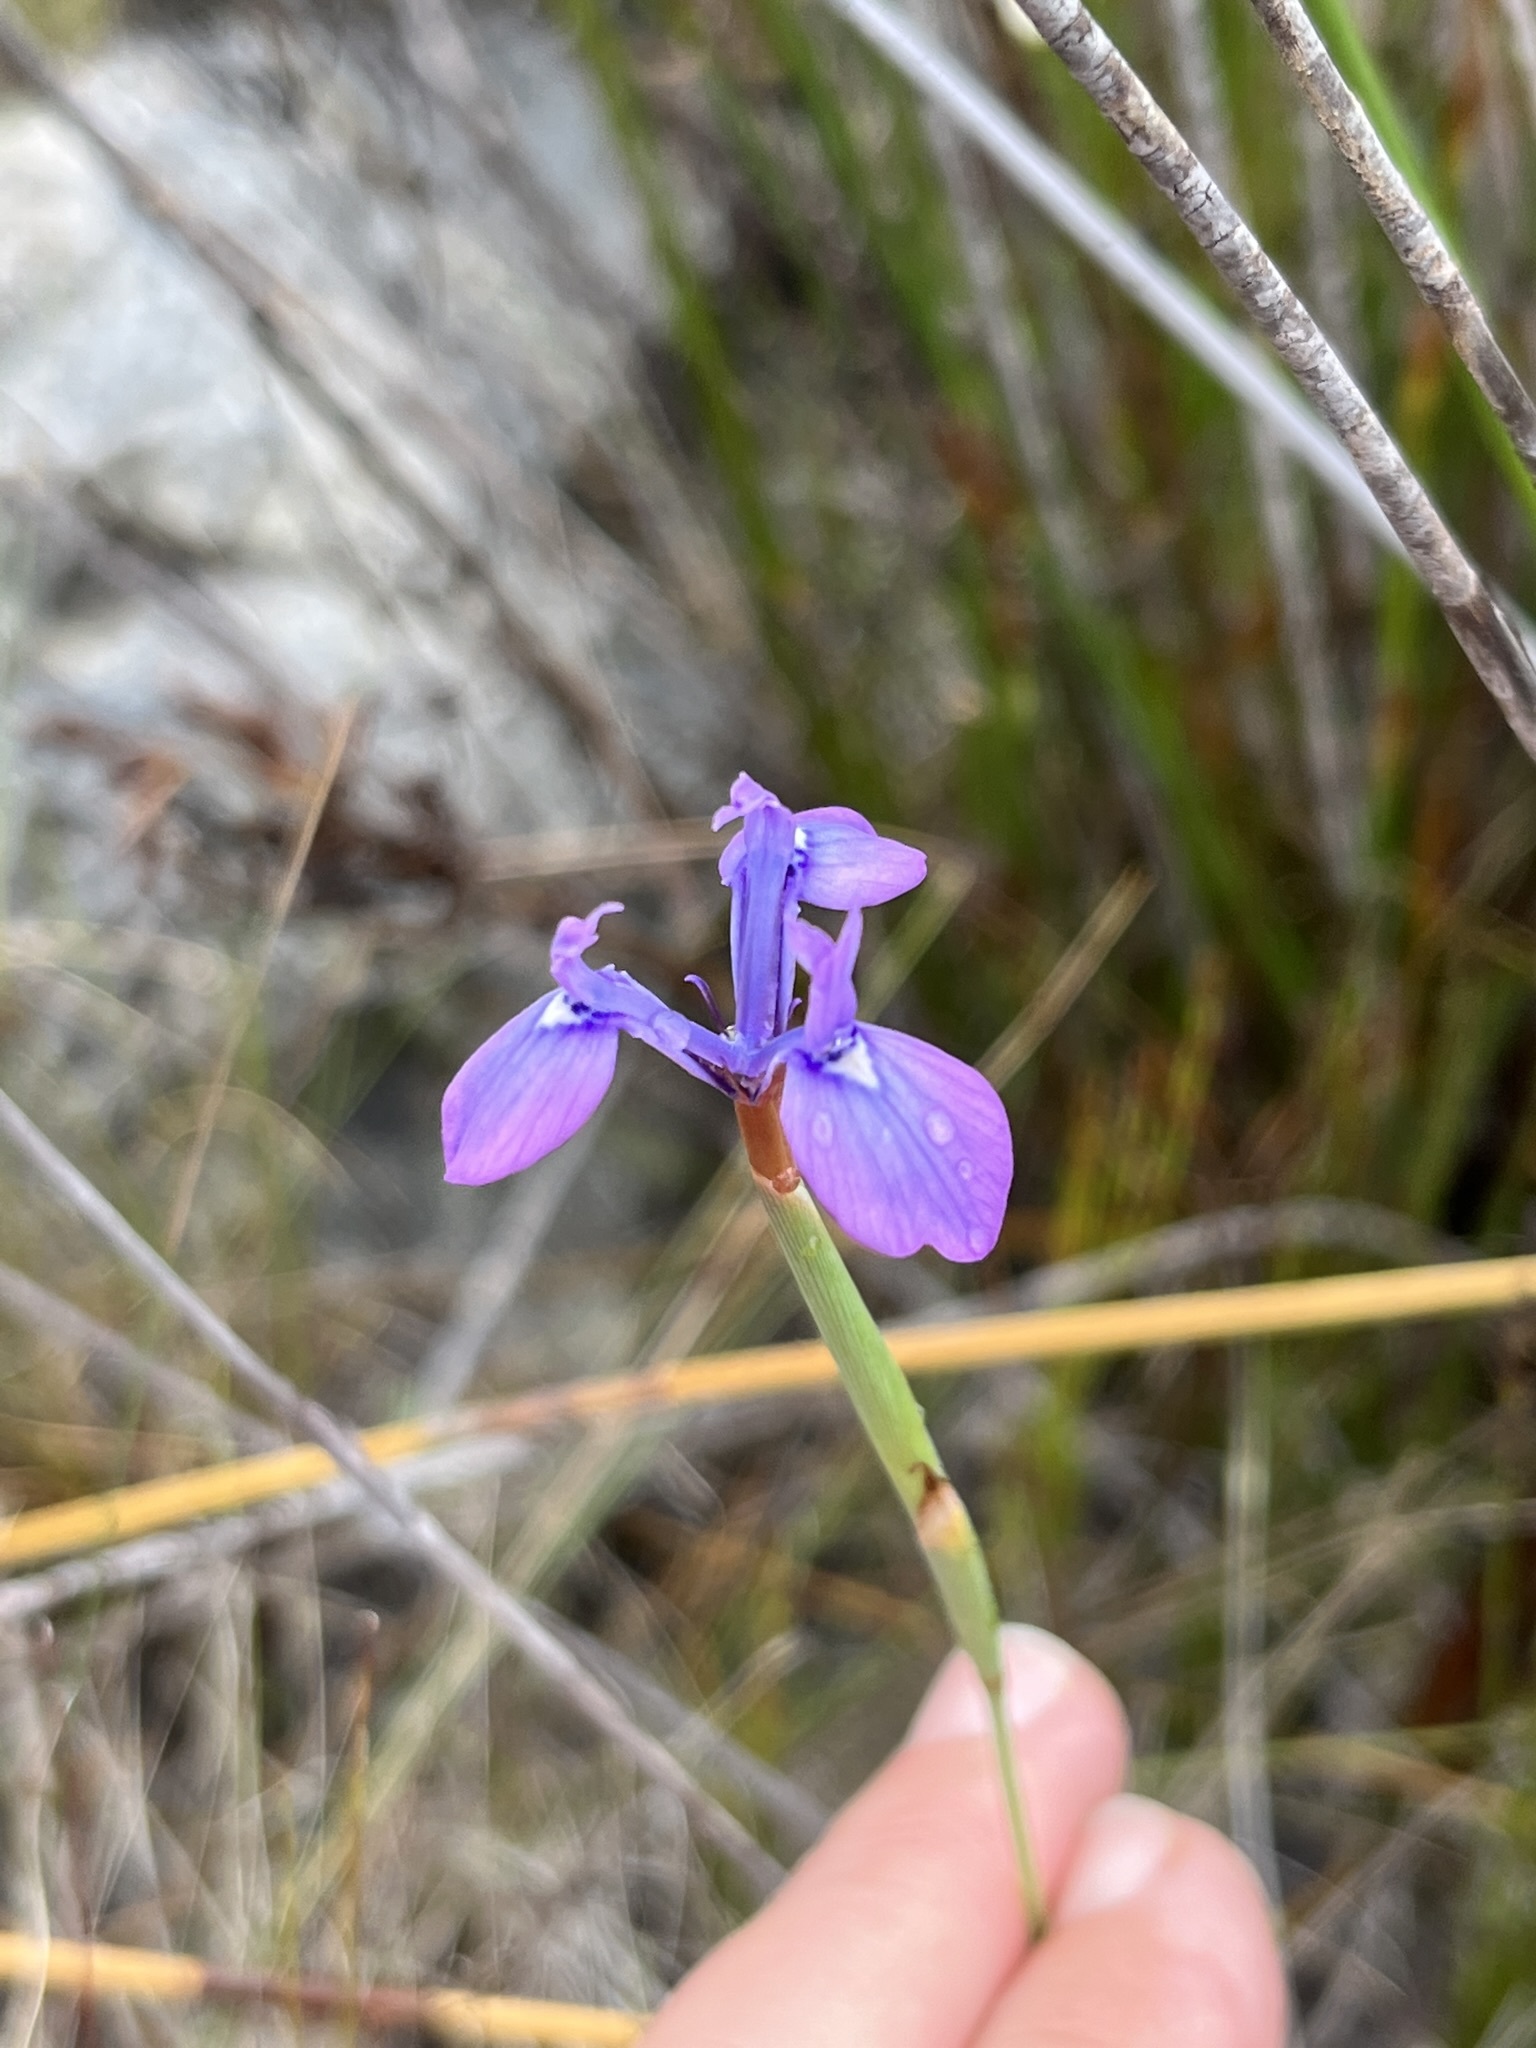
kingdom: Plantae
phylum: Tracheophyta
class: Liliopsida
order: Asparagales
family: Iridaceae
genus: Moraea
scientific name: Moraea tripetala
